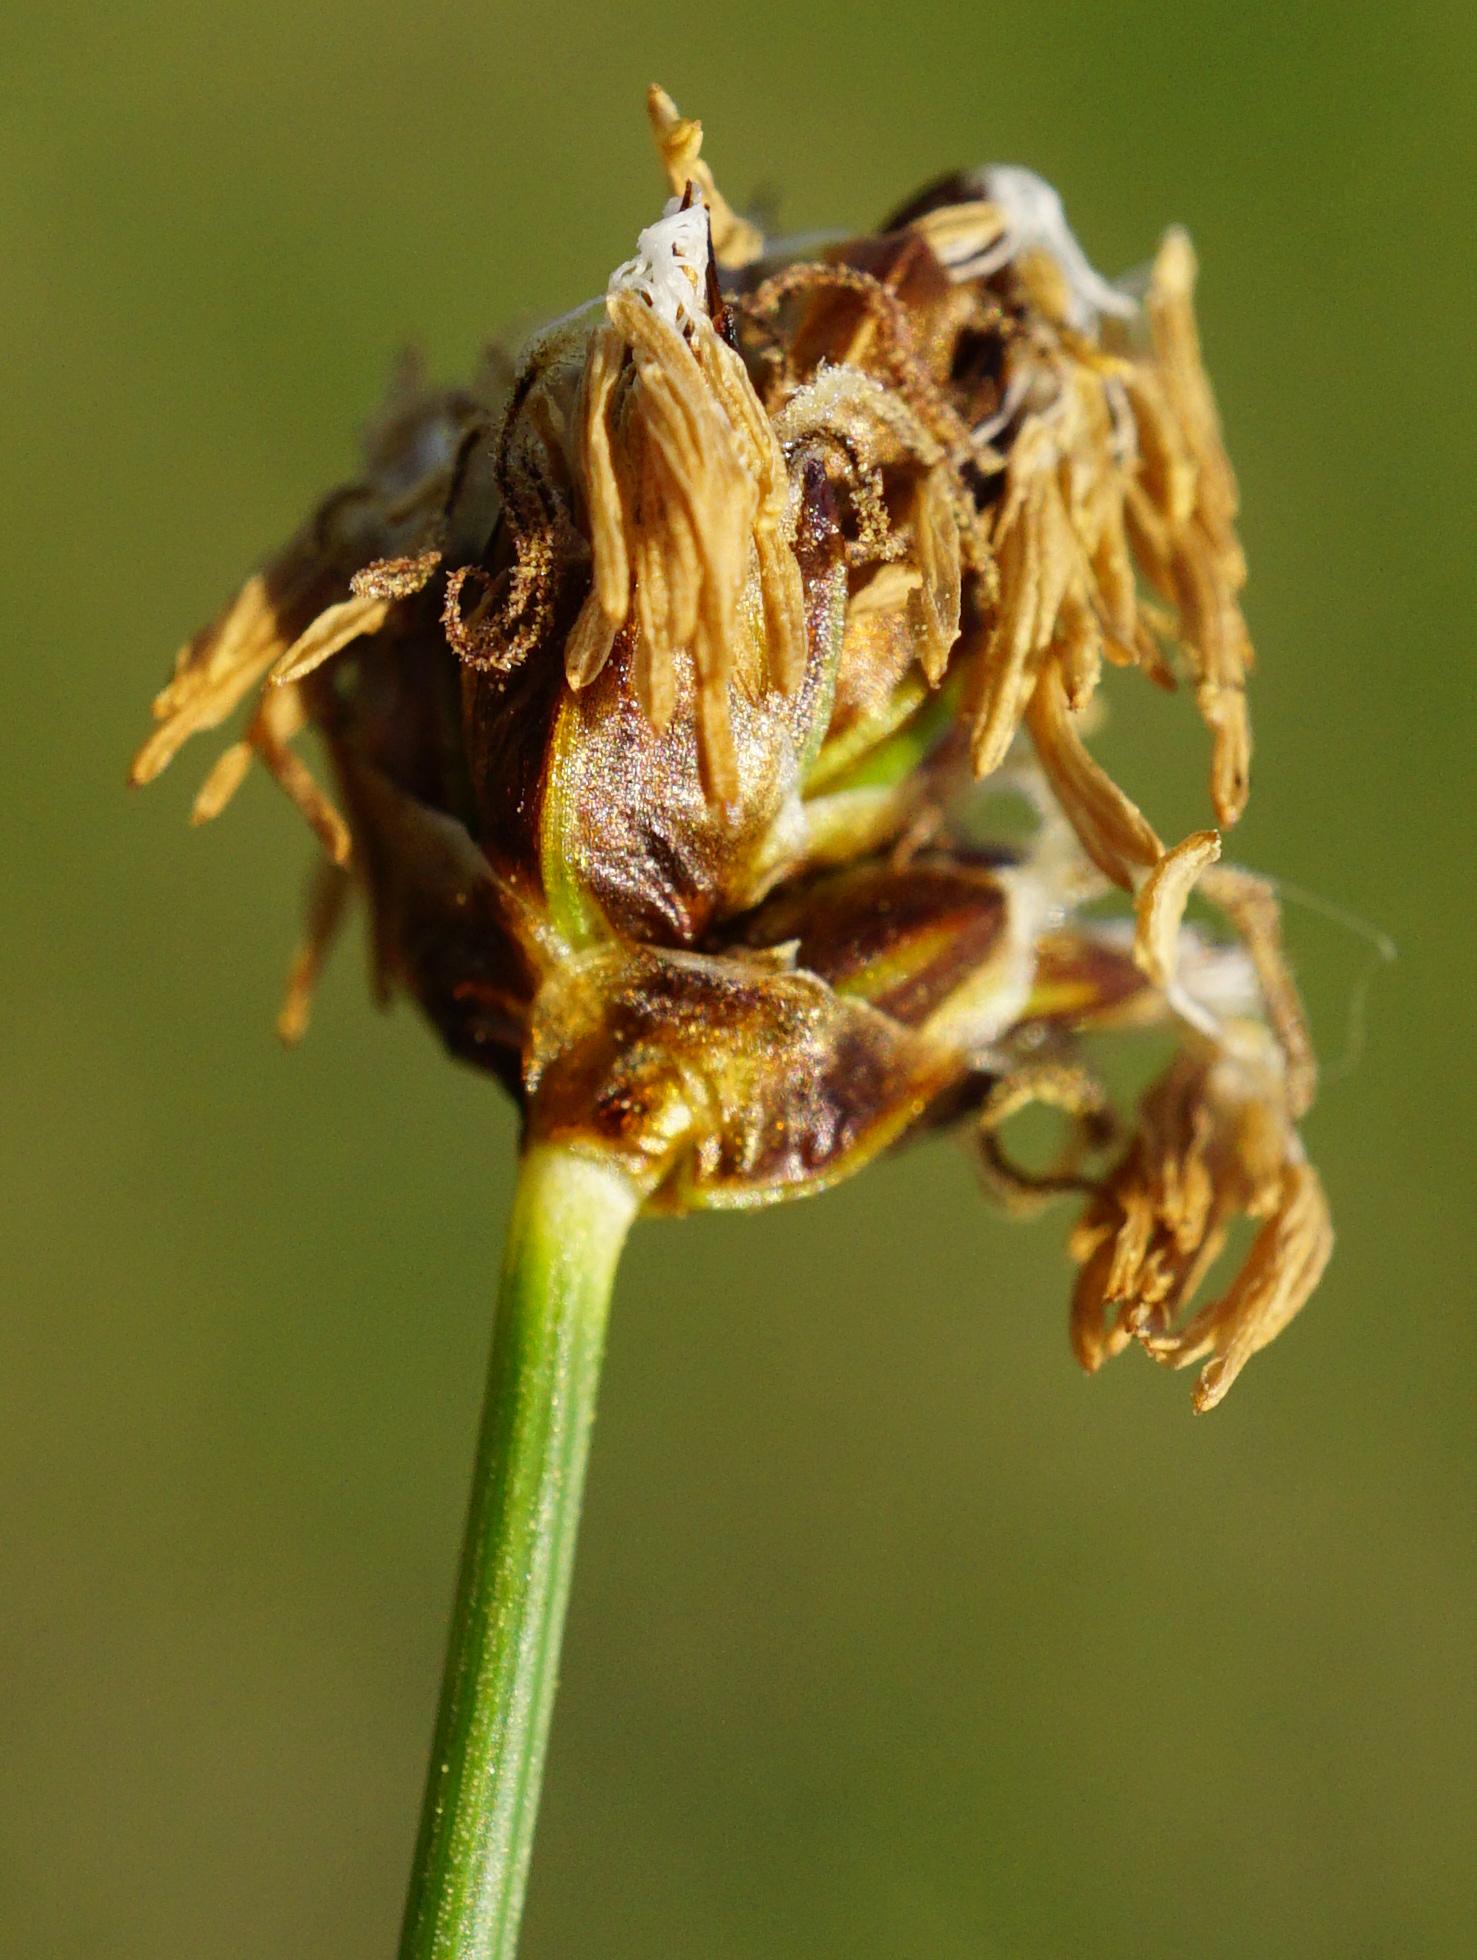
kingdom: Plantae
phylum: Tracheophyta
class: Liliopsida
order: Poales
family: Cyperaceae
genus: Carex
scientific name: Carex stenophylla
